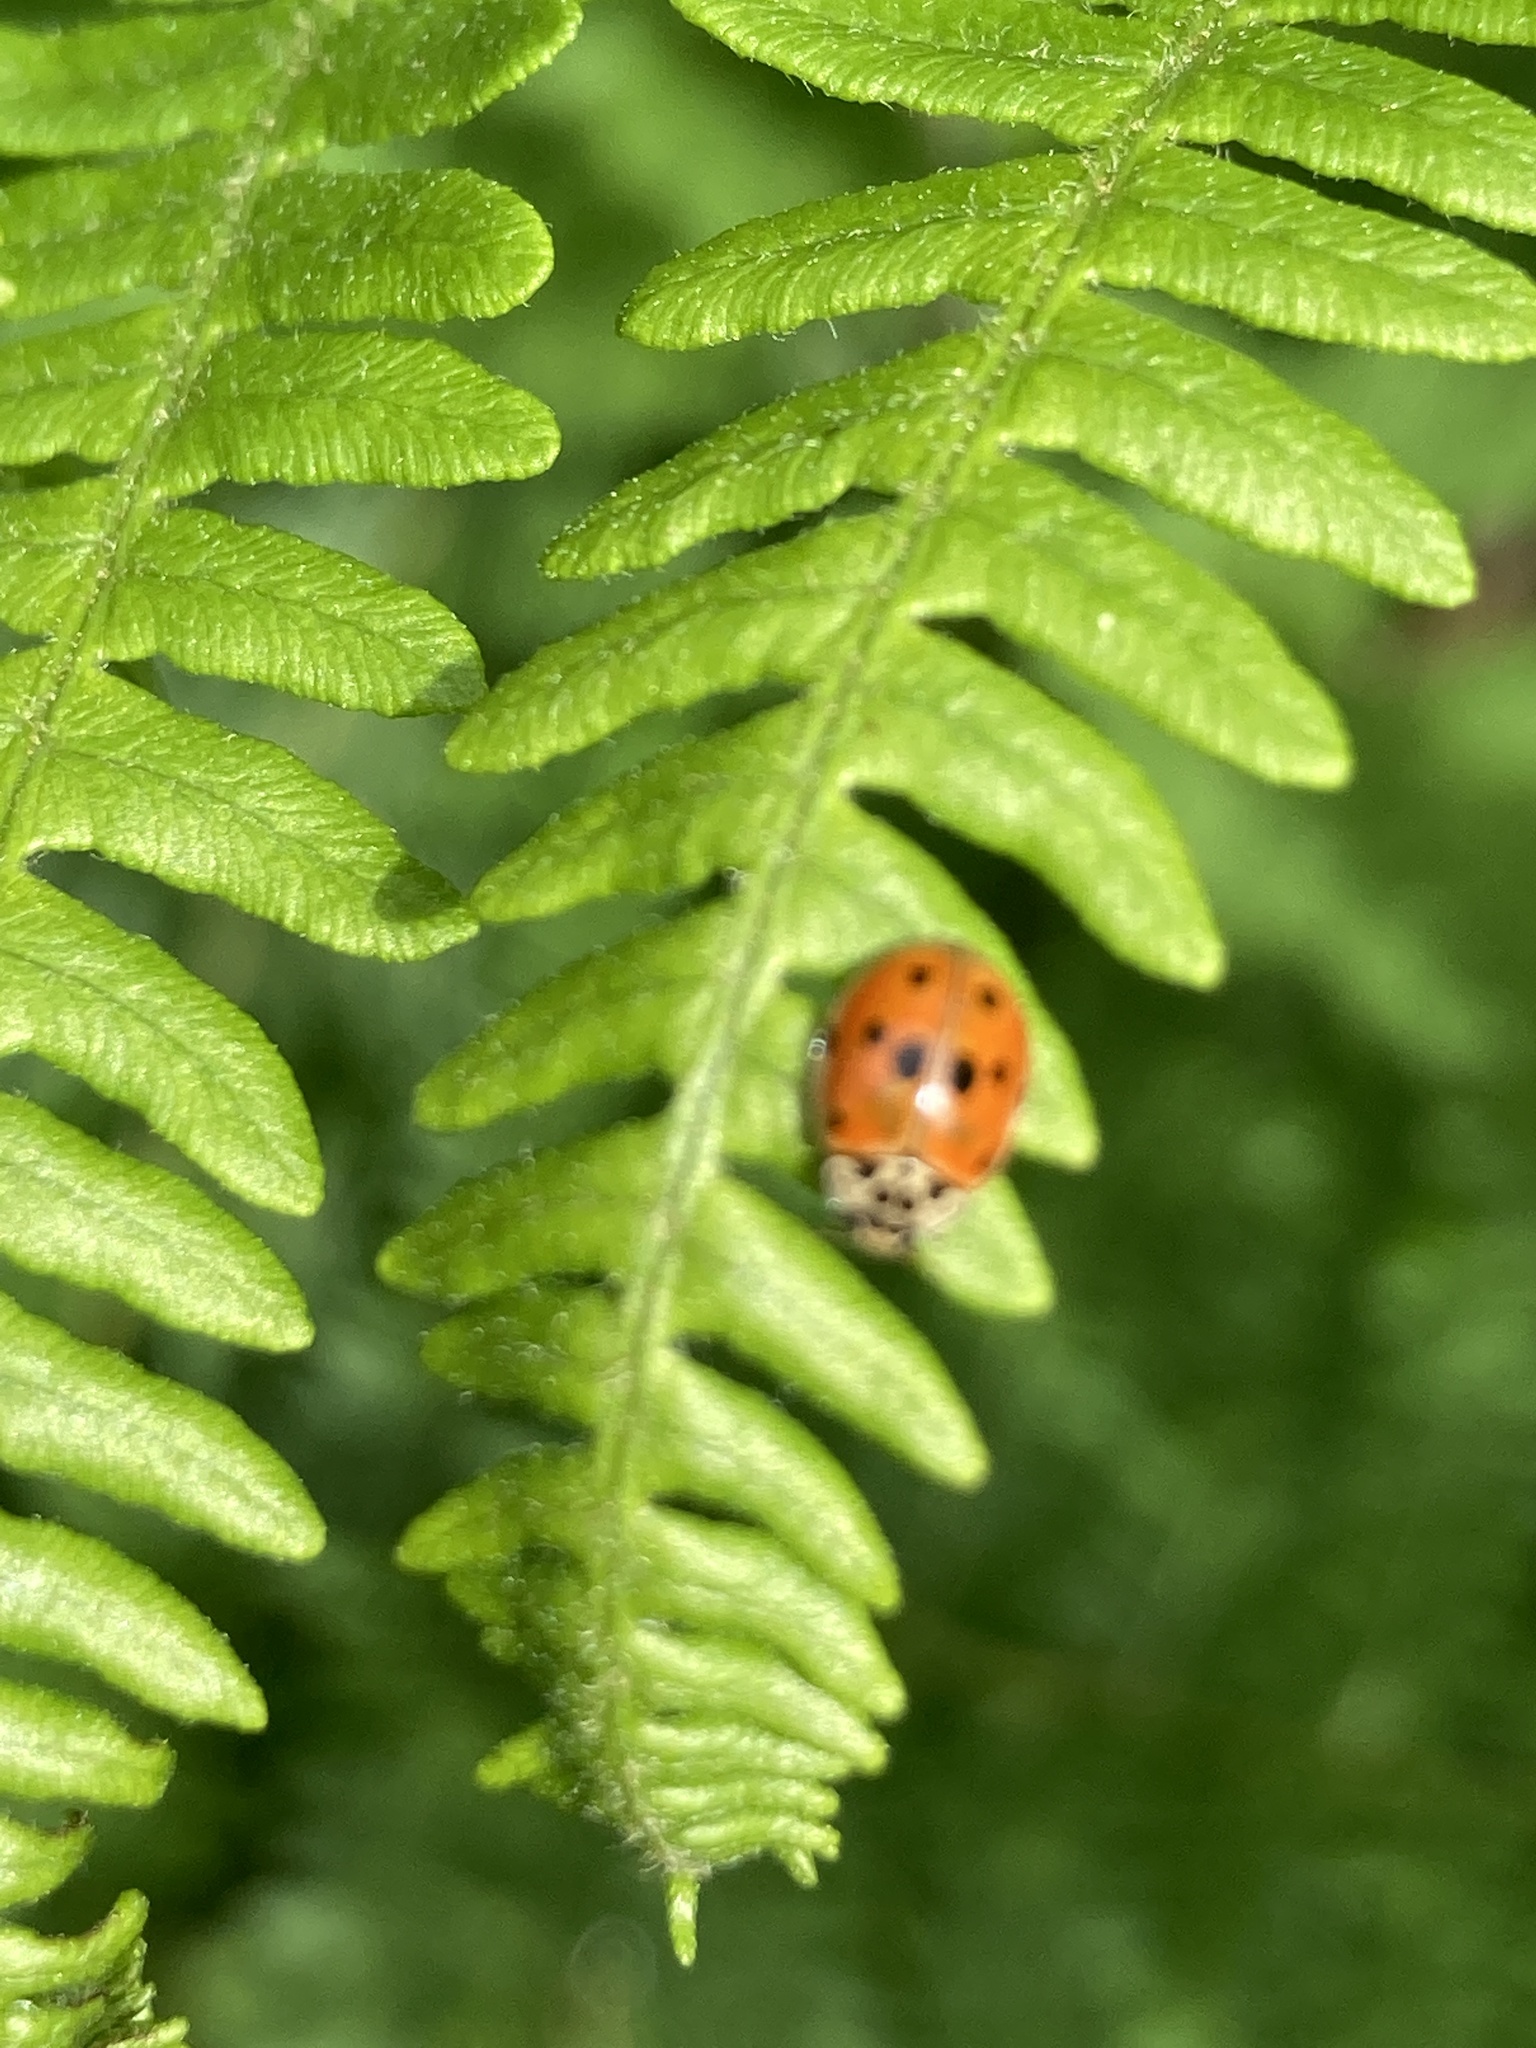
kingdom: Animalia
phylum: Arthropoda
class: Insecta
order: Coleoptera
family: Coccinellidae
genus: Adalia
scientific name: Adalia decempunctata
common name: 10-spot ladybird
